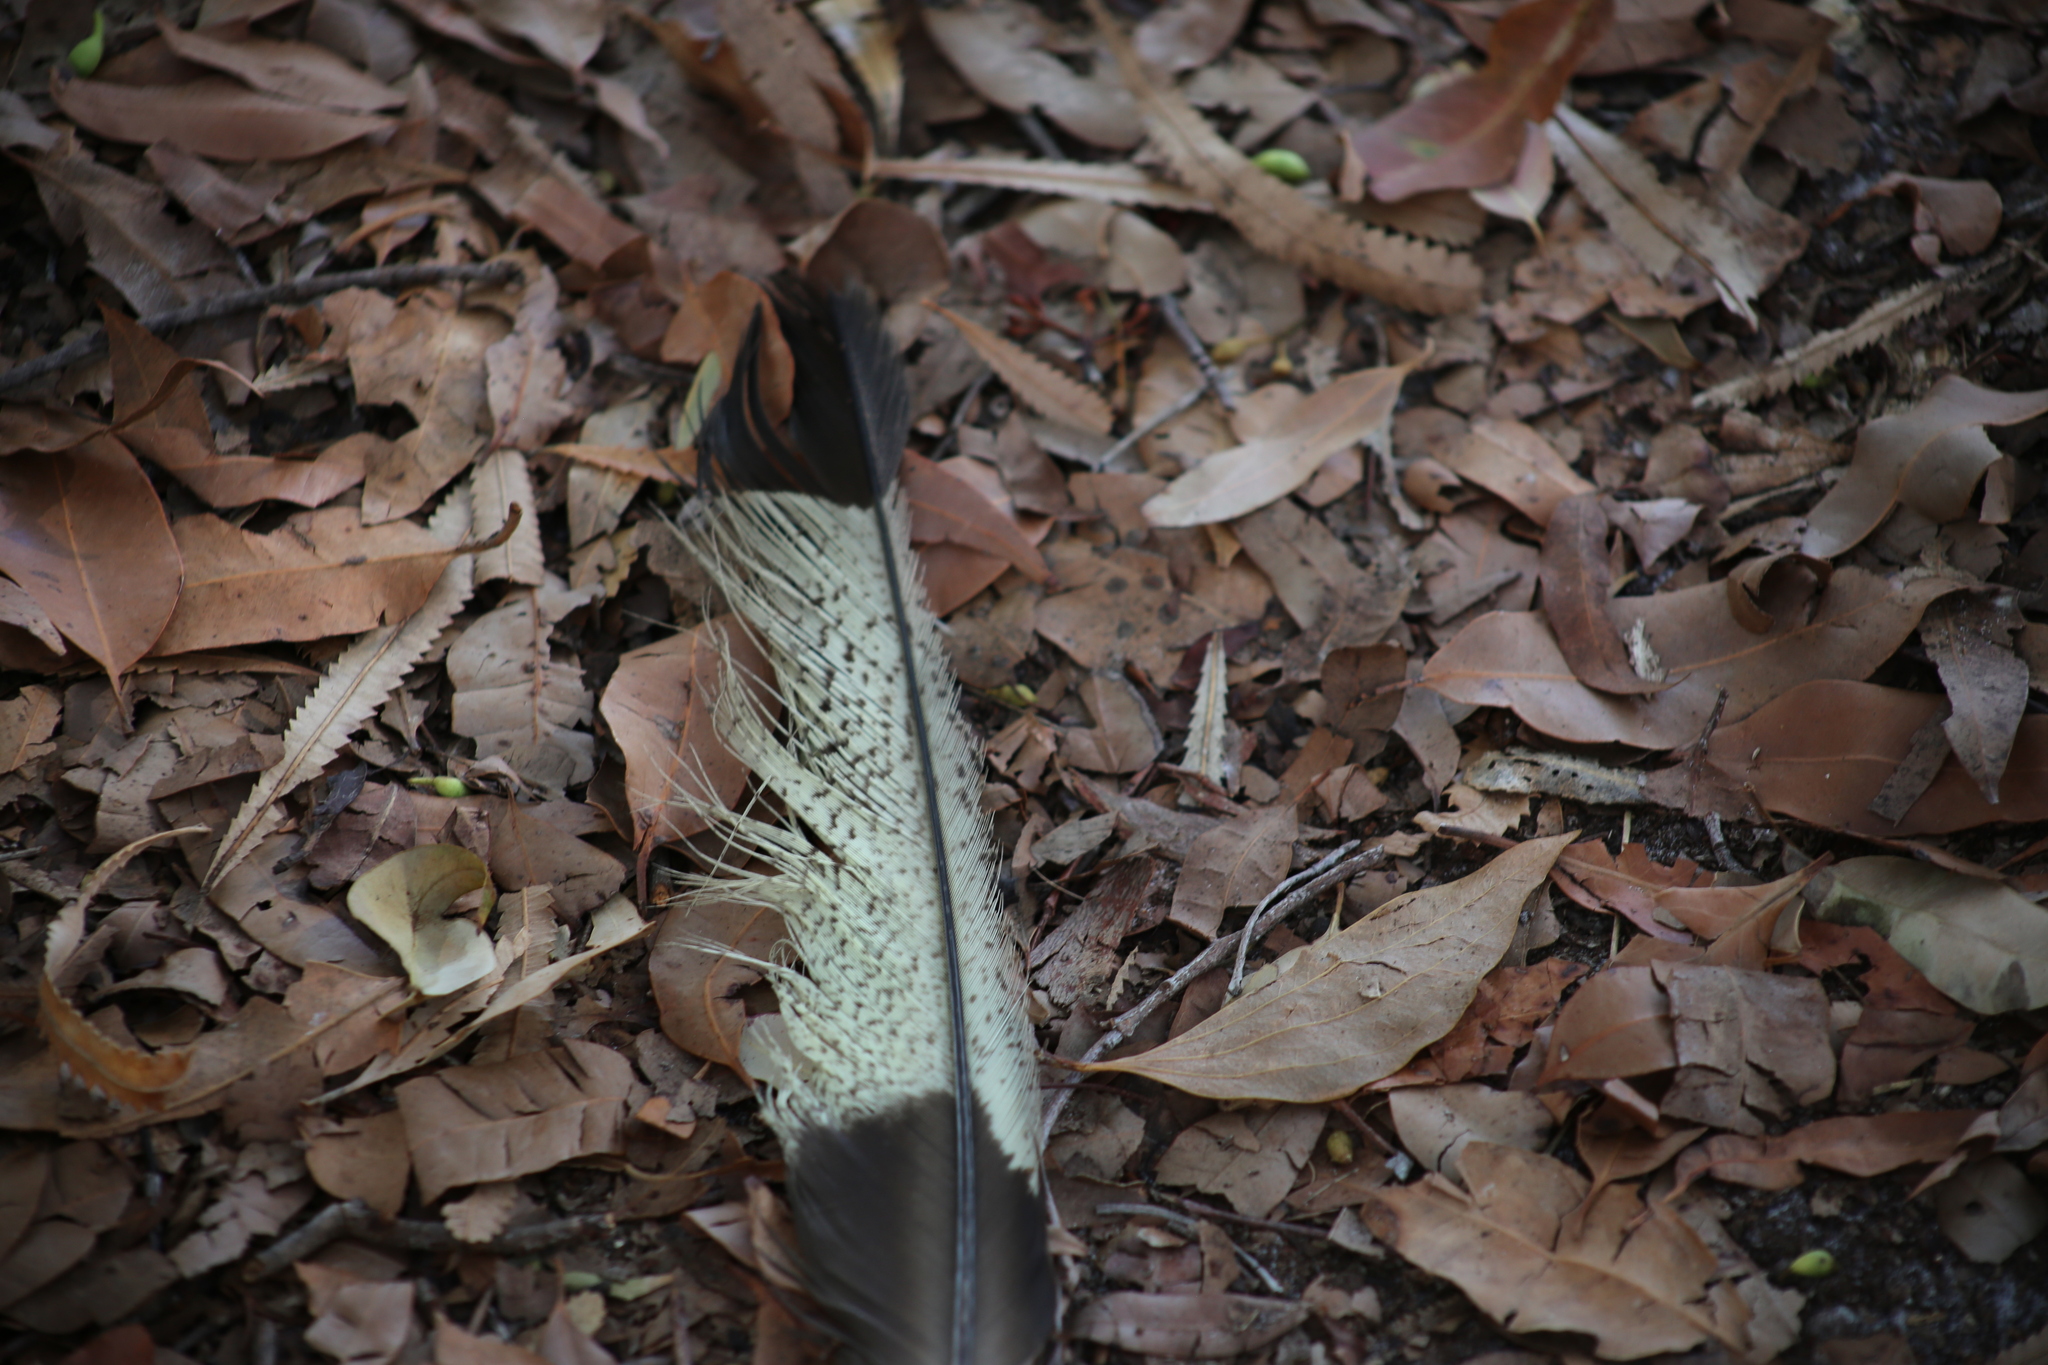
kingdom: Animalia
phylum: Chordata
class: Aves
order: Psittaciformes
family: Cacatuidae
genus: Zanda
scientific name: Zanda funerea
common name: Yellow-tailed black-cockatoo
